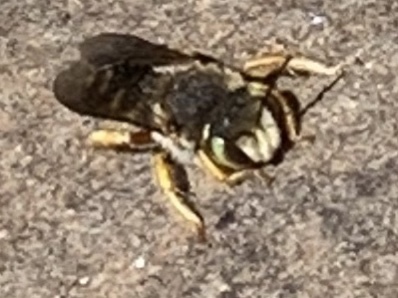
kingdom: Animalia
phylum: Arthropoda
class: Insecta
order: Hymenoptera
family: Megachilidae
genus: Anthidium
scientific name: Anthidium oblongatum
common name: Oblong wool carder bee
